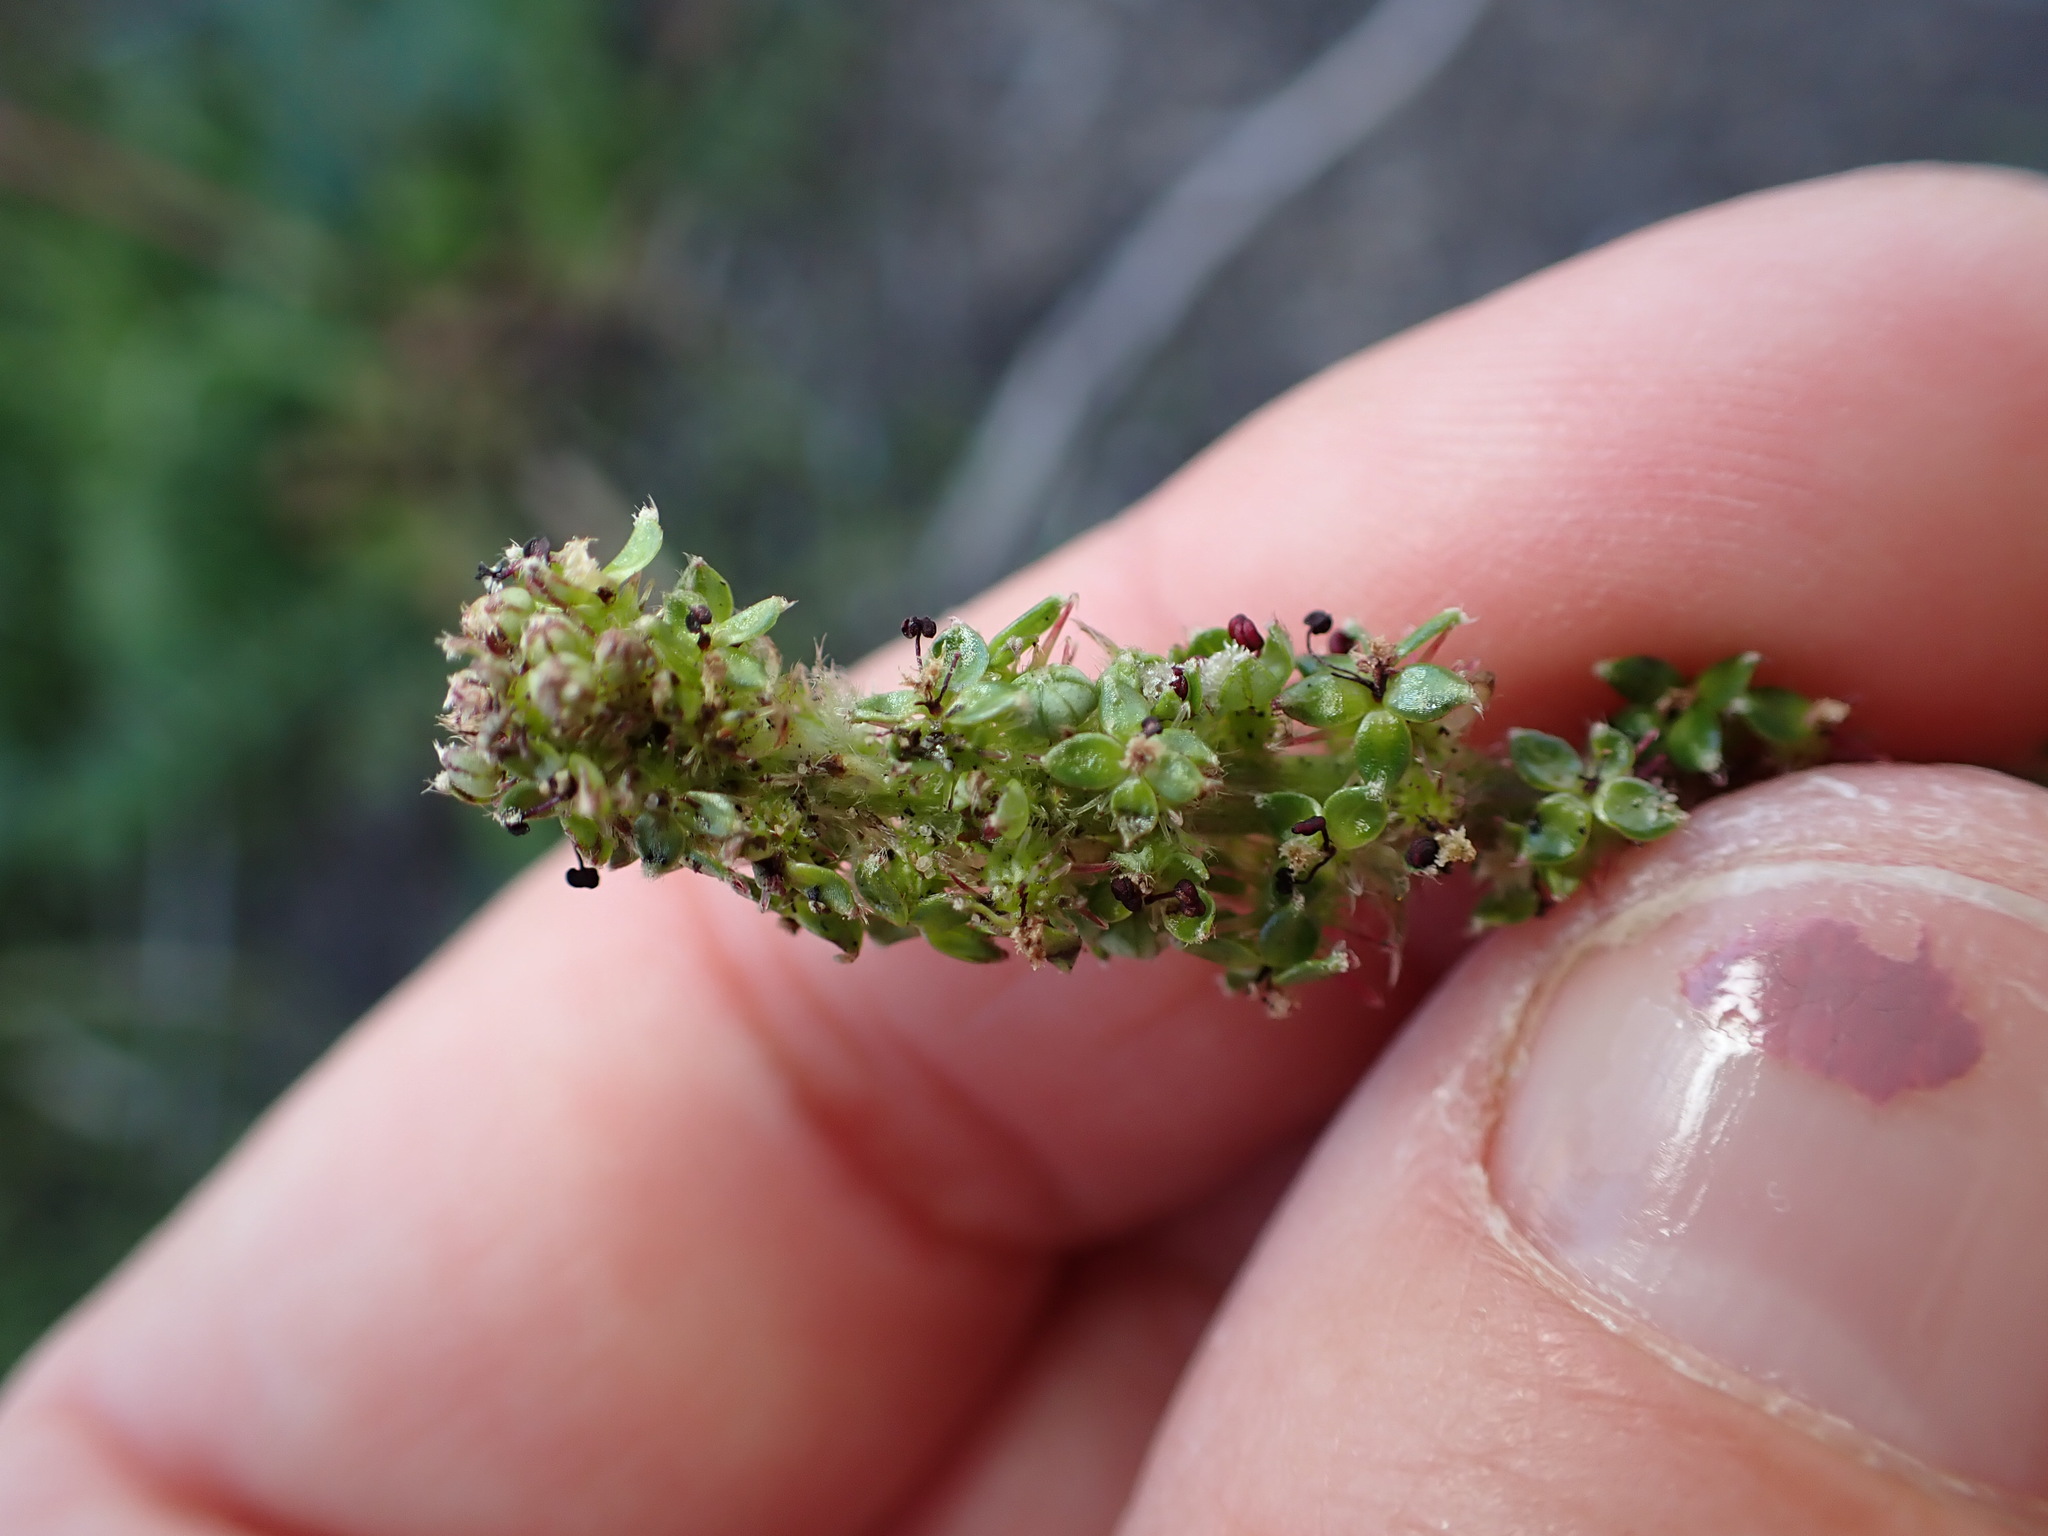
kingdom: Plantae
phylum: Tracheophyta
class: Magnoliopsida
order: Rosales
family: Rosaceae
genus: Acaena
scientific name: Acaena agnipila
